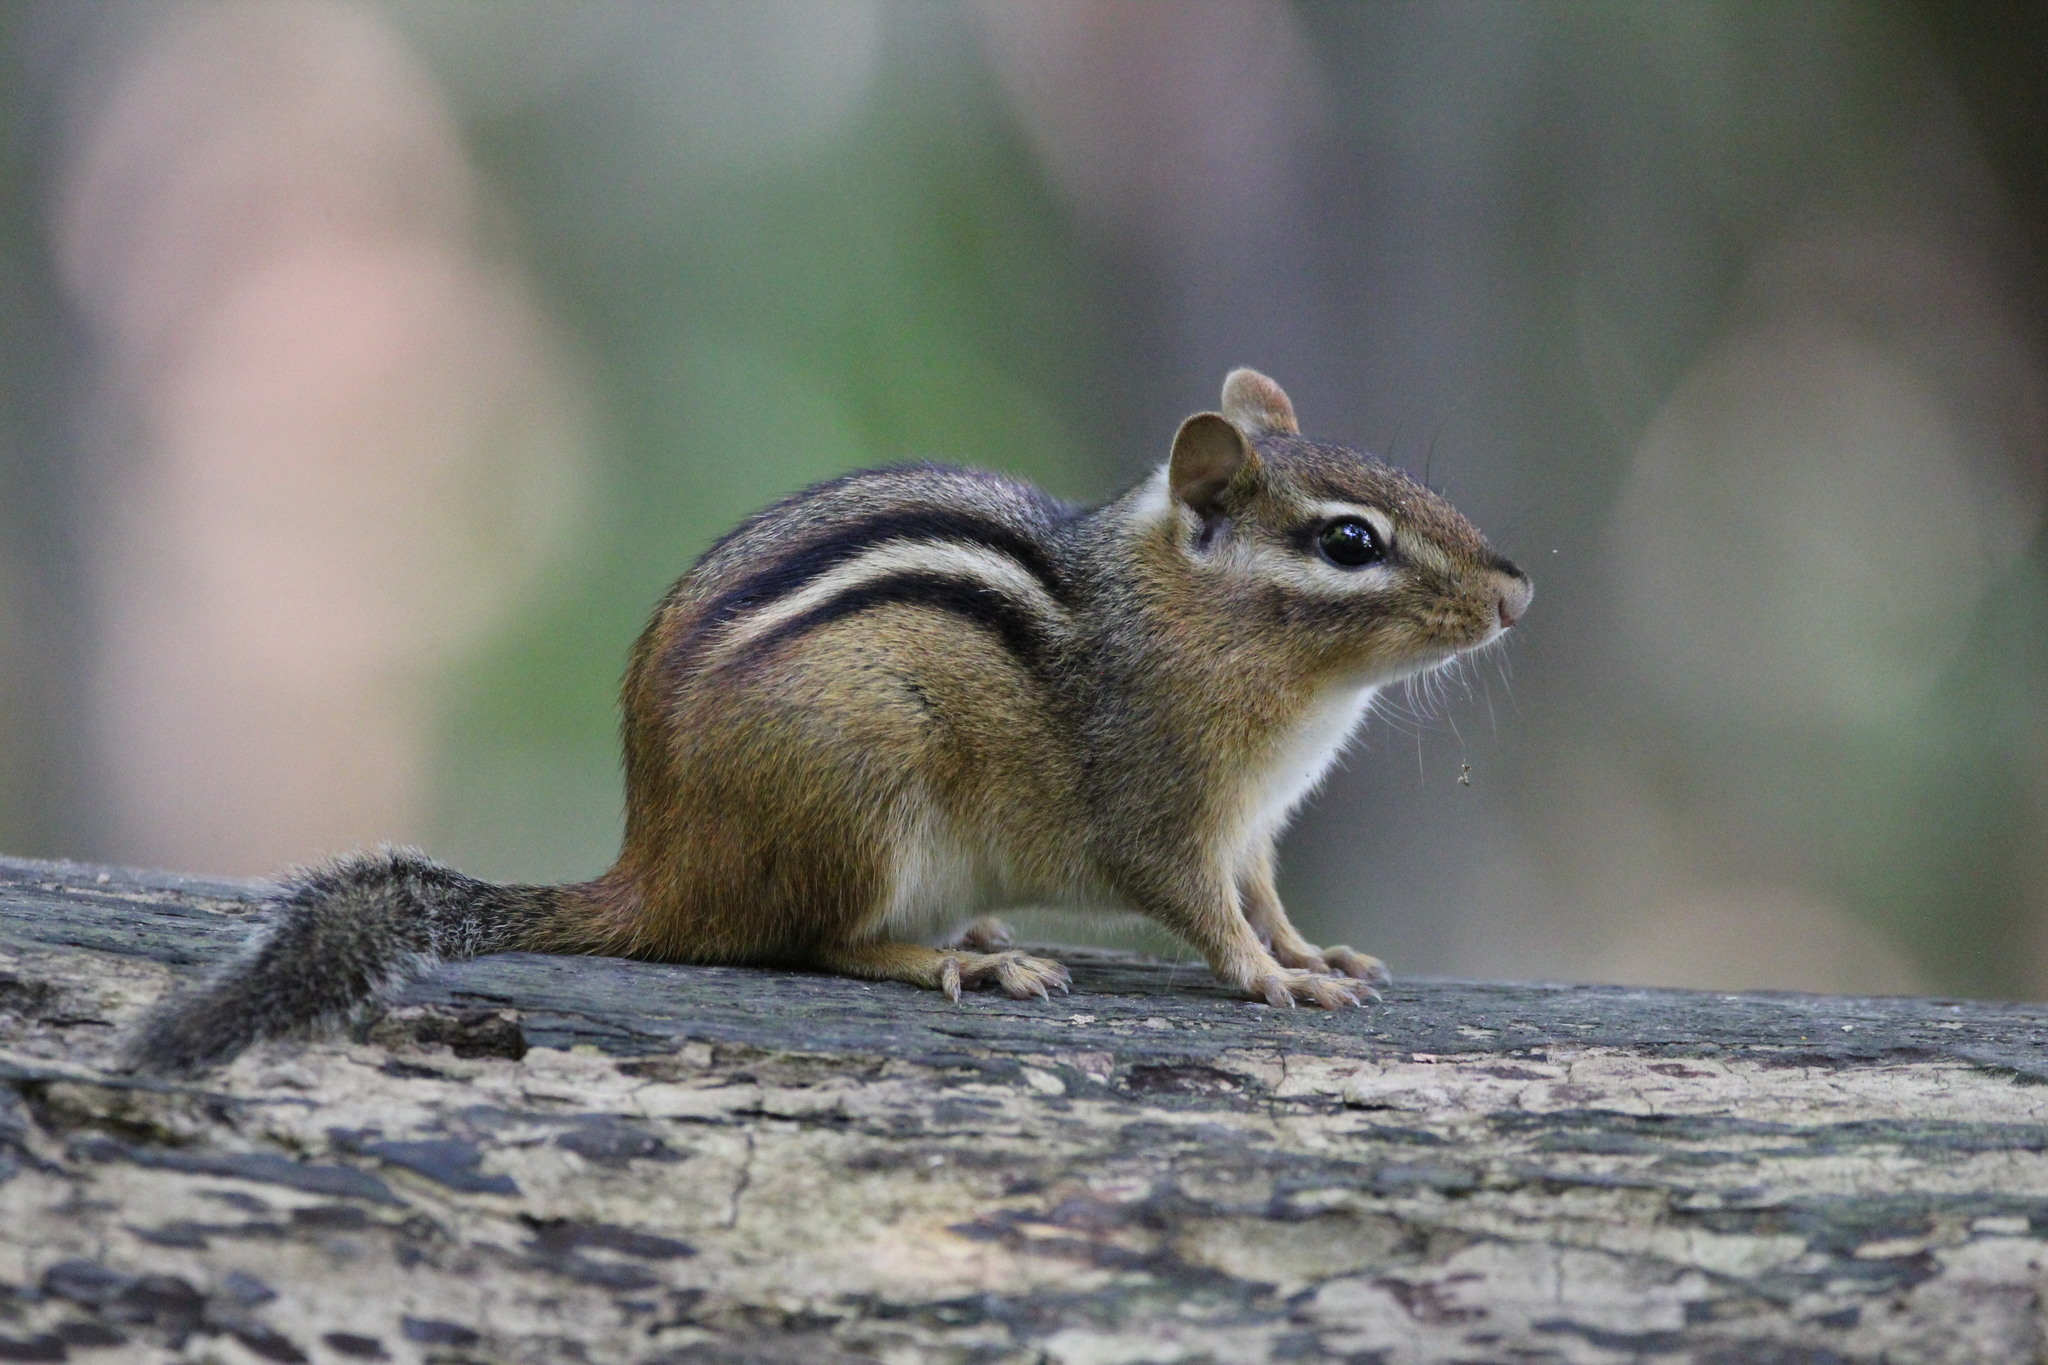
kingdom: Animalia
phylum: Chordata
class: Mammalia
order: Rodentia
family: Sciuridae
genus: Tamias
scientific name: Tamias striatus
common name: Eastern chipmunk
